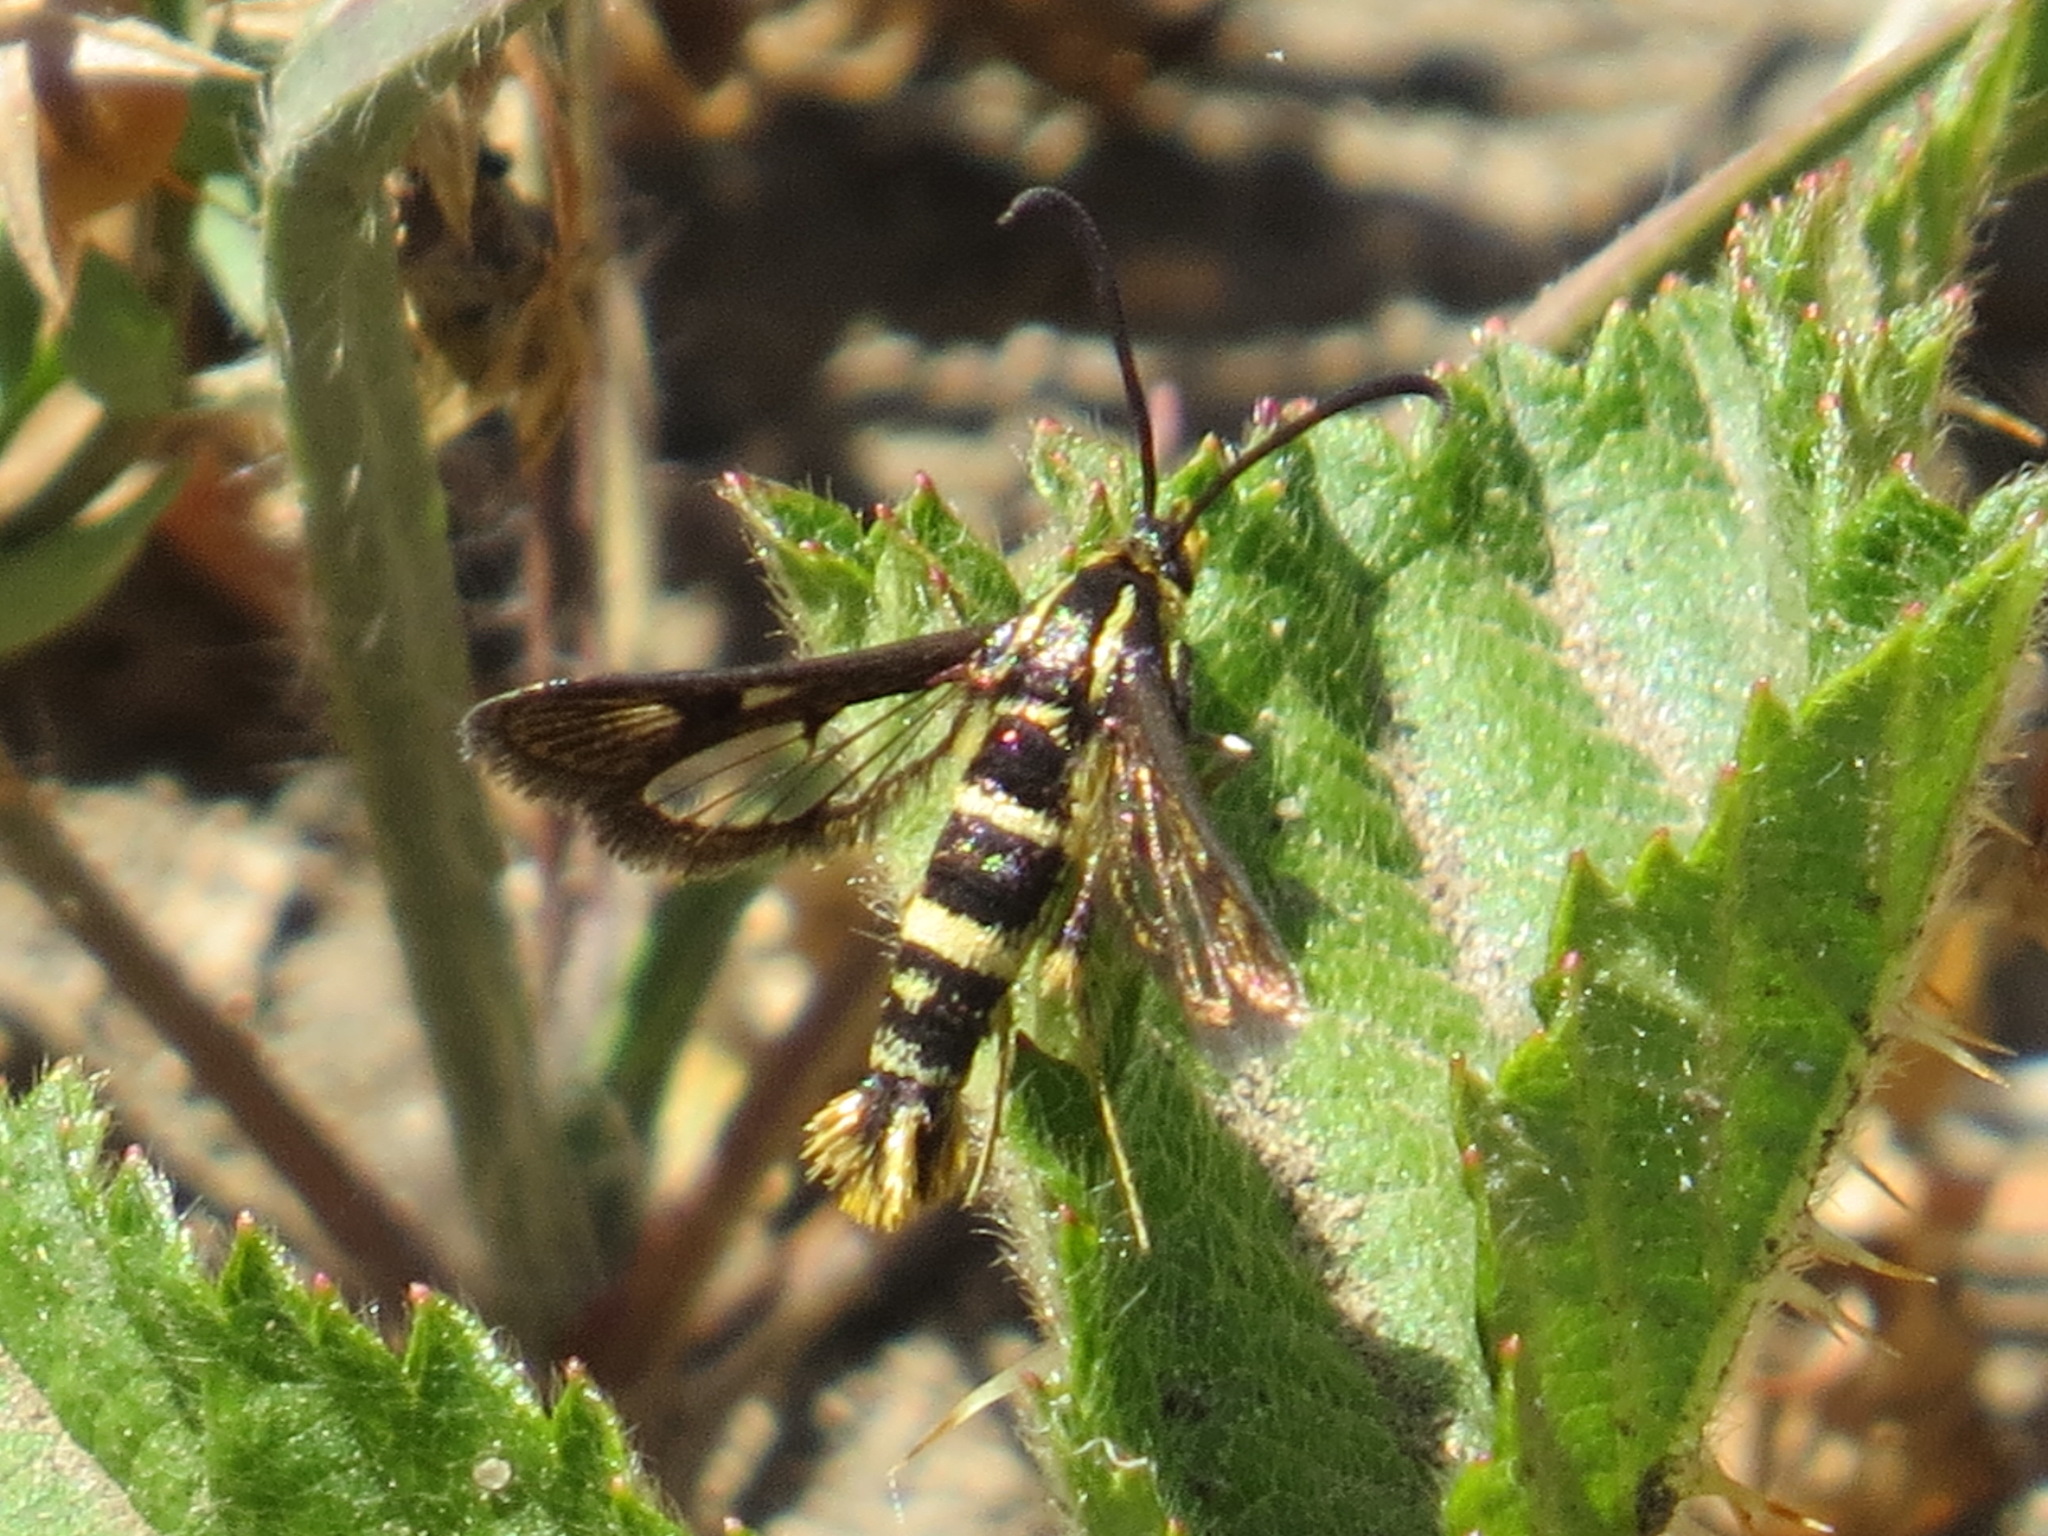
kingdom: Animalia
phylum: Arthropoda
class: Insecta
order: Lepidoptera
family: Sesiidae
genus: Synanthedon
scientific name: Synanthedon bibionipennis
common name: Strawberry crown moth
